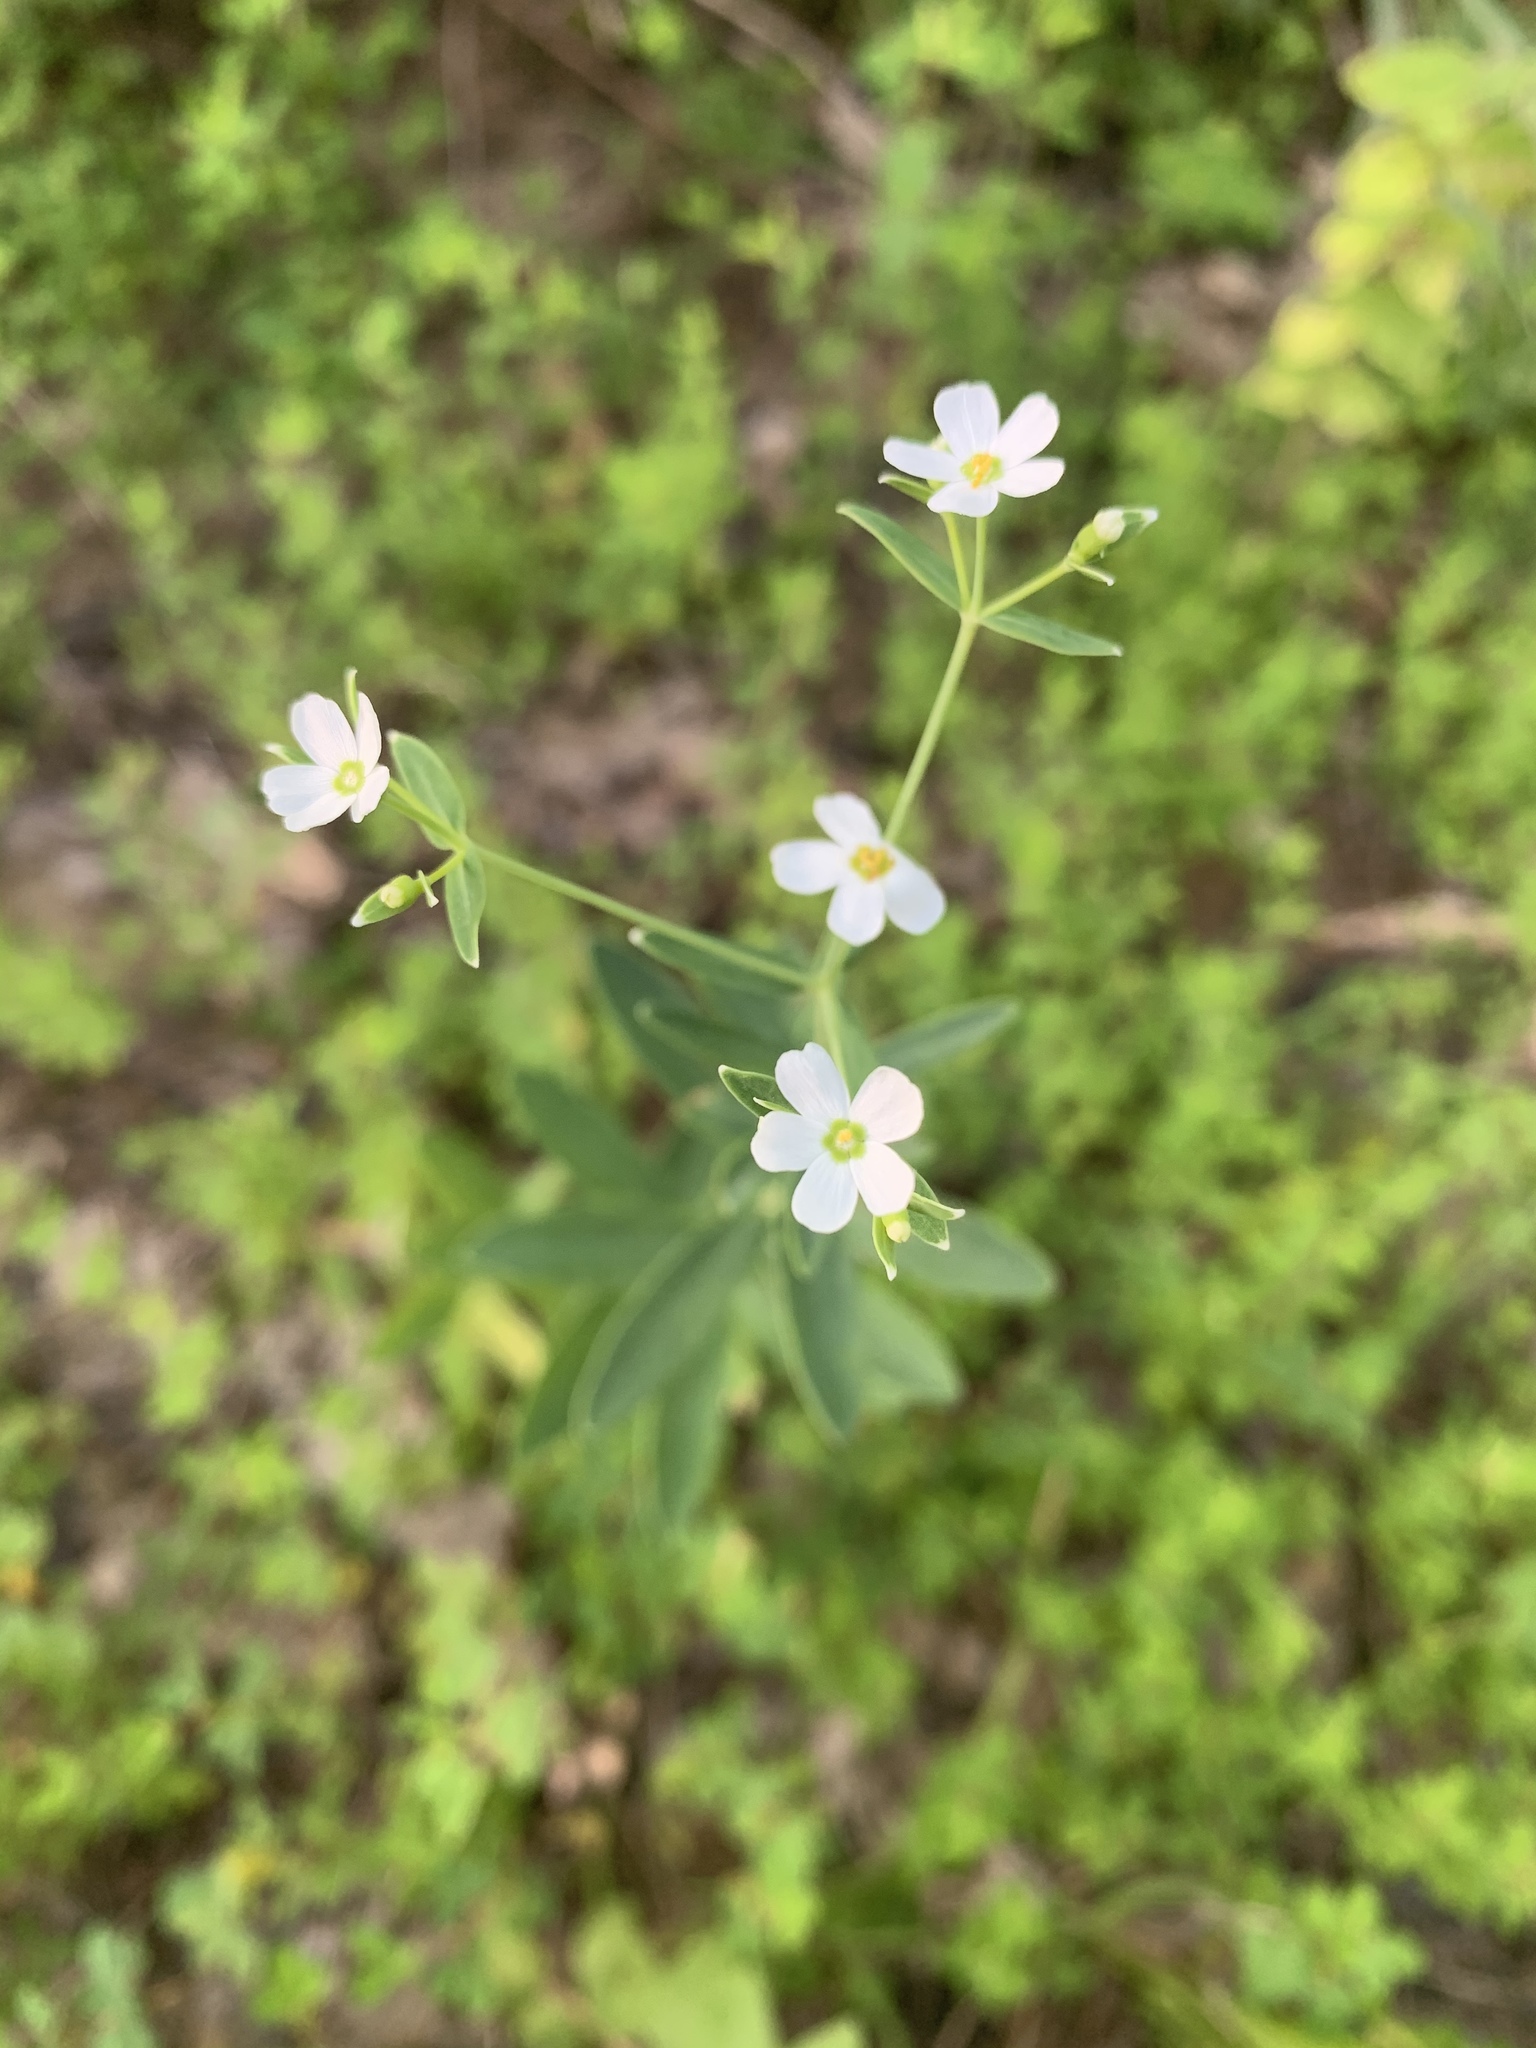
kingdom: Plantae
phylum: Tracheophyta
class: Magnoliopsida
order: Malpighiales
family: Euphorbiaceae
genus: Euphorbia
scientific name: Euphorbia corollata
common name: Flowering spurge
